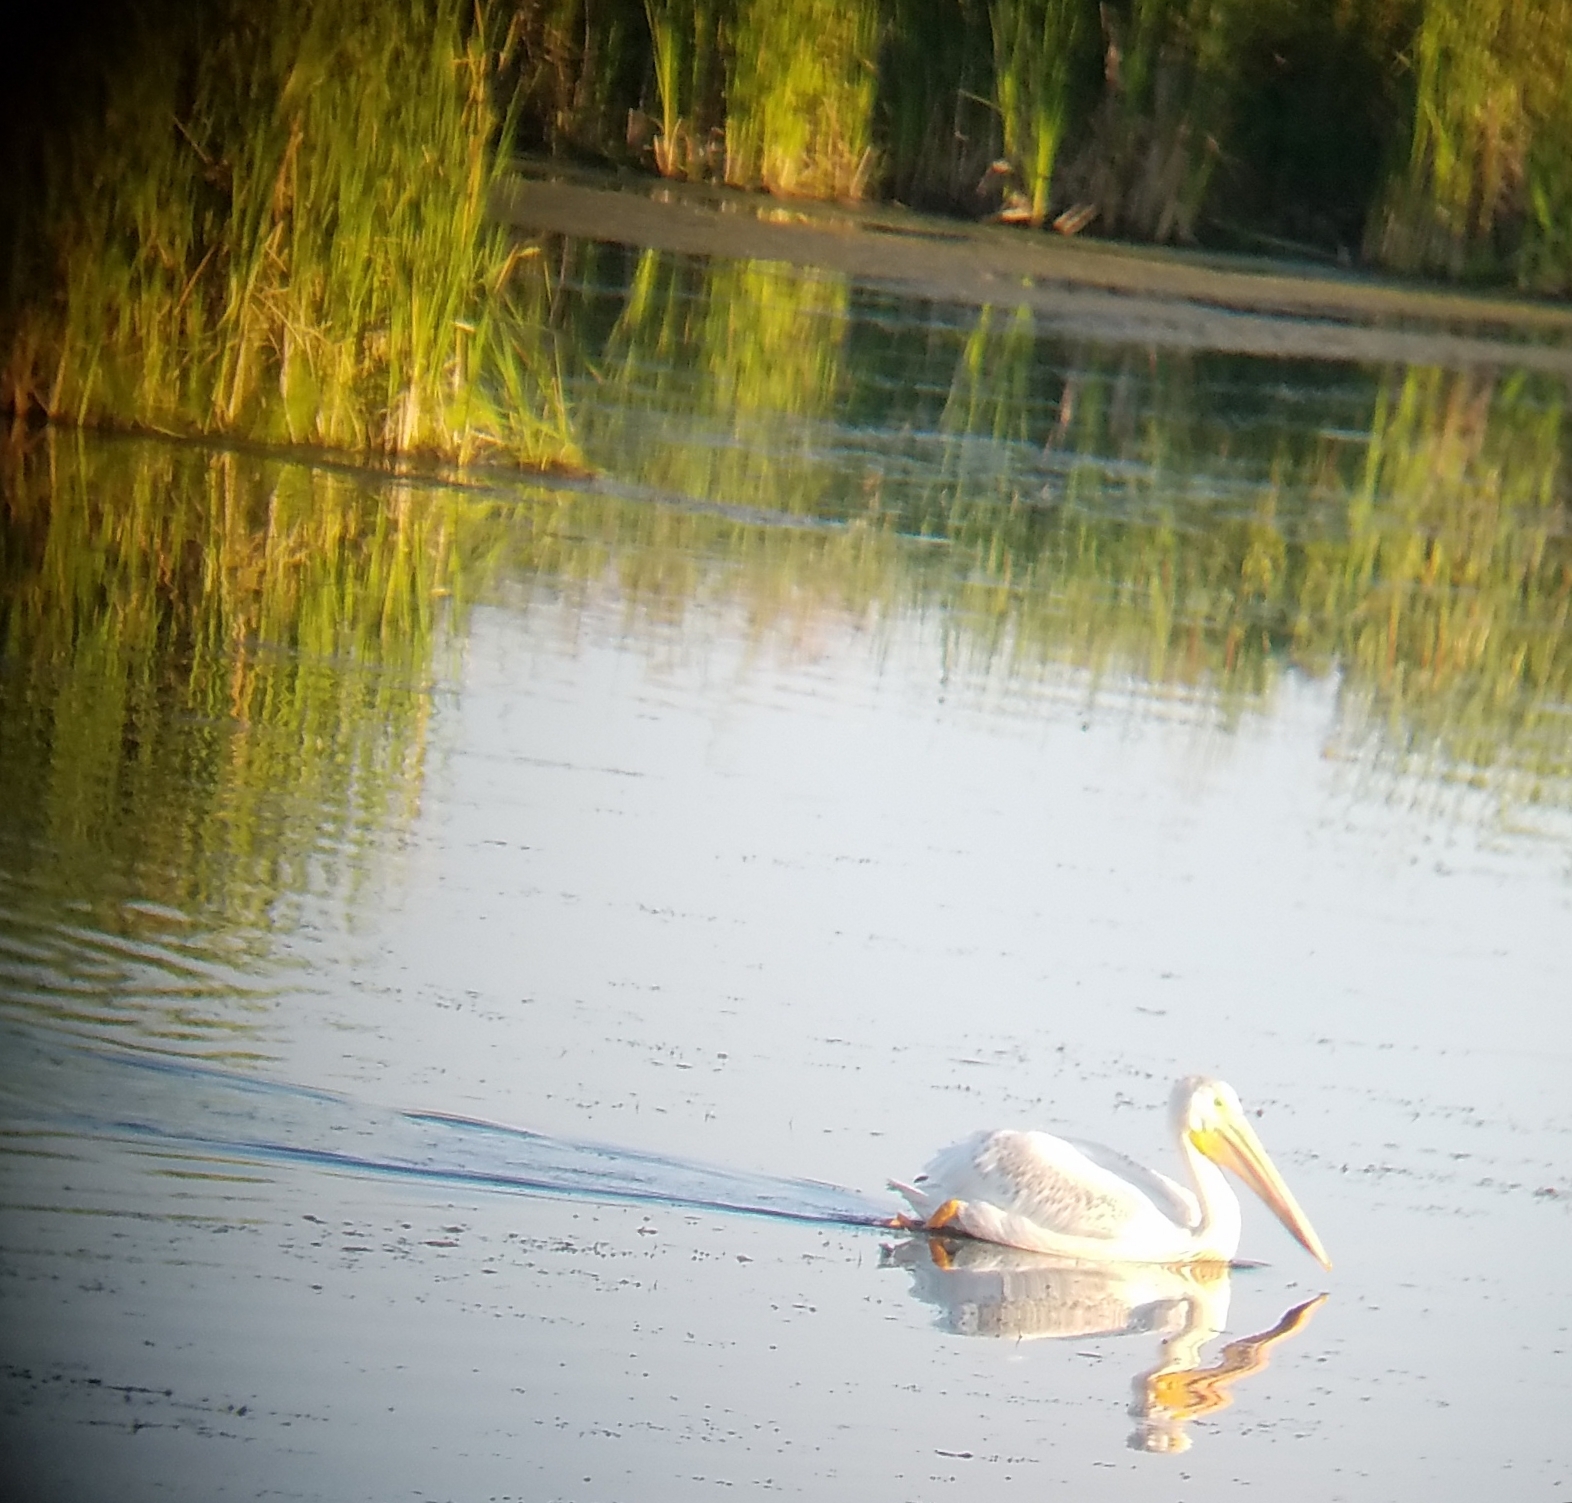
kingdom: Animalia
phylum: Chordata
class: Aves
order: Pelecaniformes
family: Pelecanidae
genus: Pelecanus
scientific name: Pelecanus erythrorhynchos
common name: American white pelican
